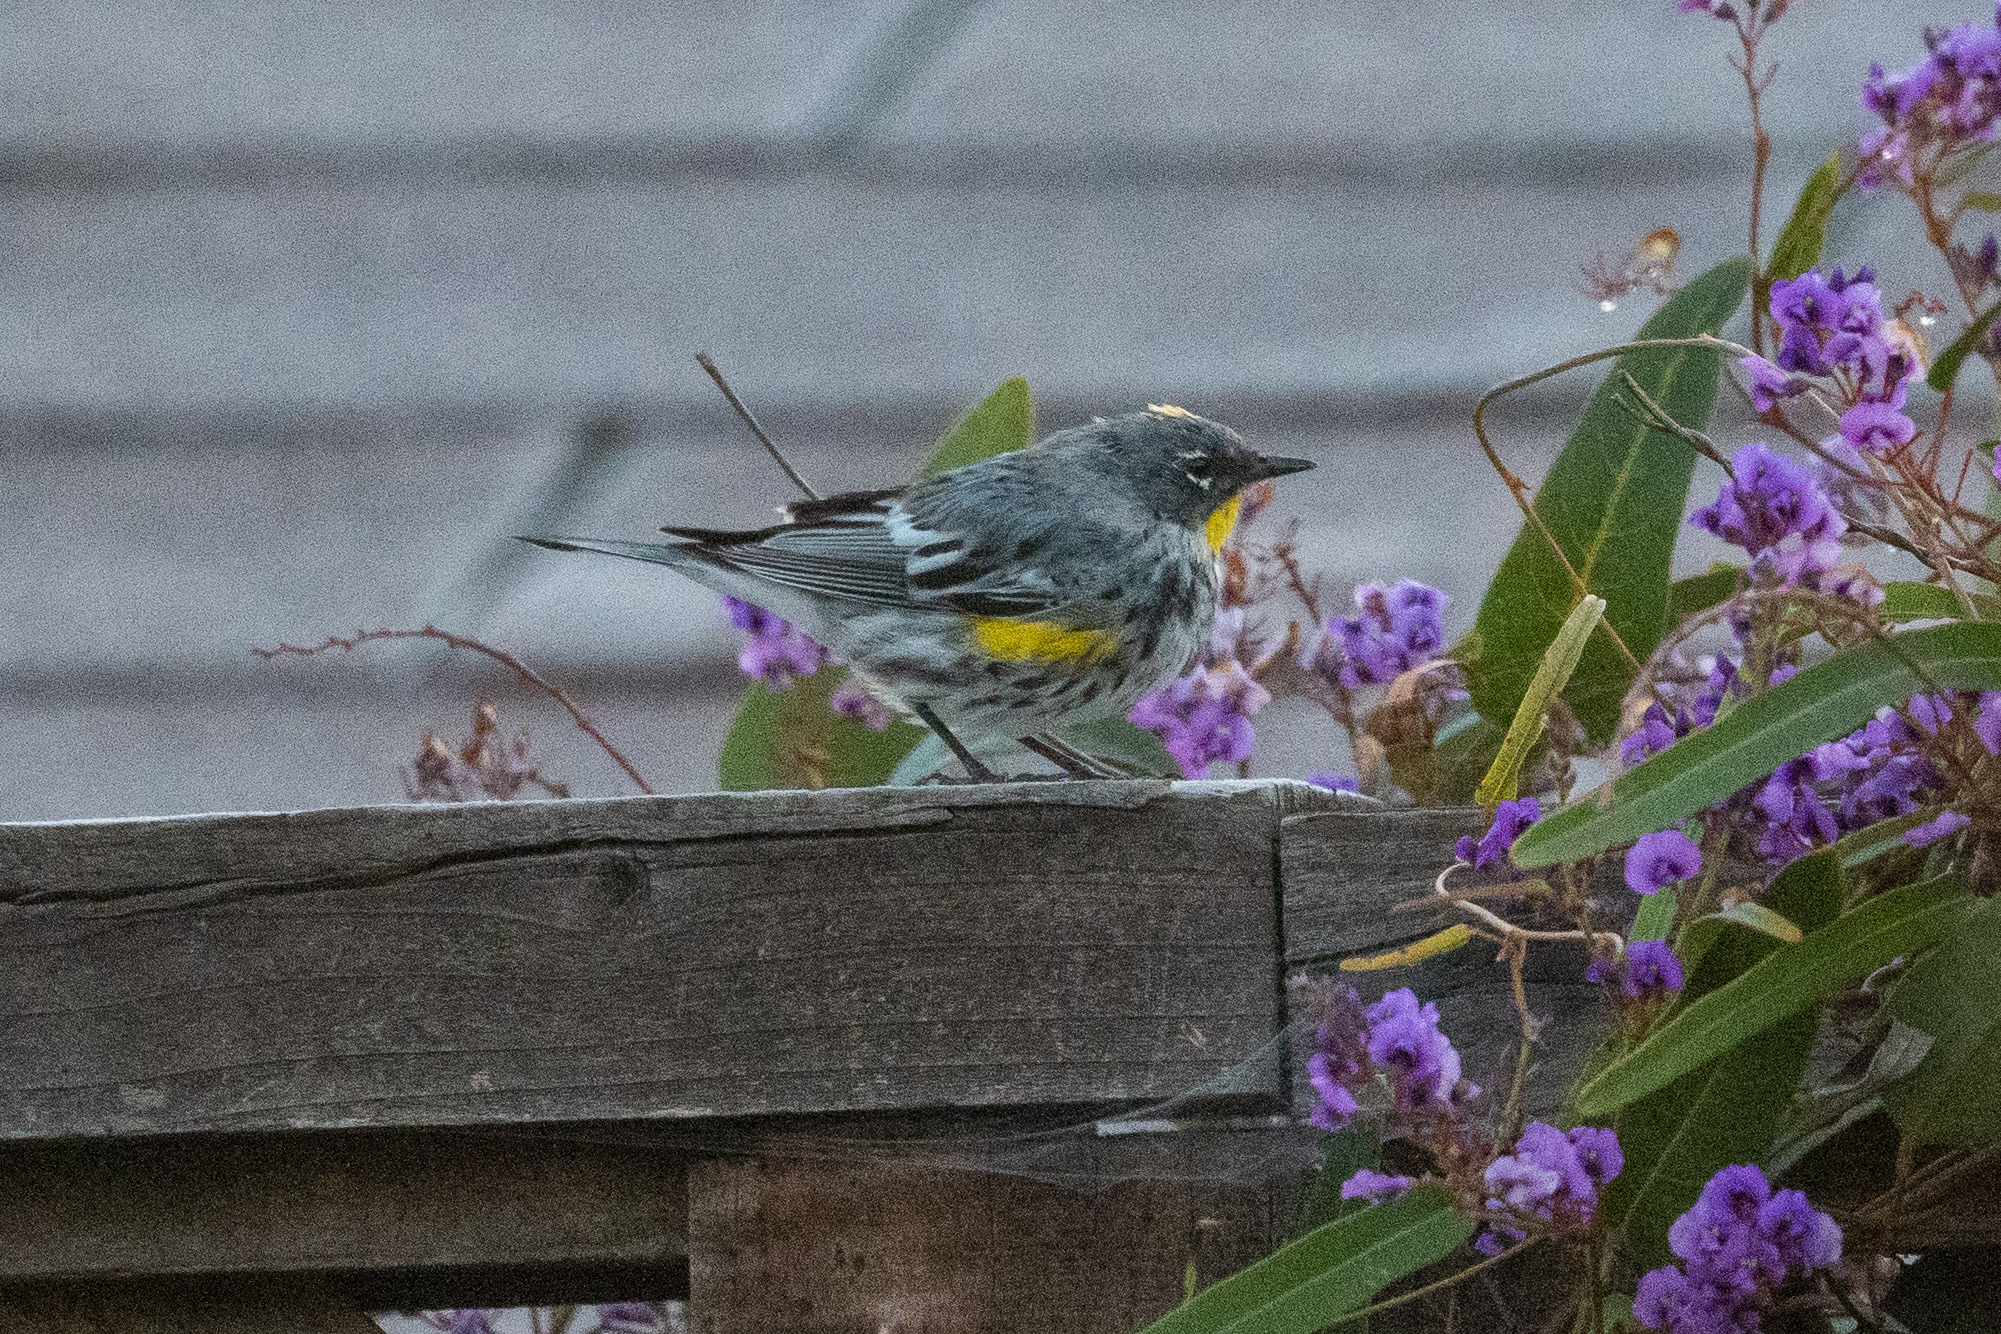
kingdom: Animalia
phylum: Chordata
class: Aves
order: Passeriformes
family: Parulidae
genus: Setophaga
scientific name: Setophaga coronata
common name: Myrtle warbler
